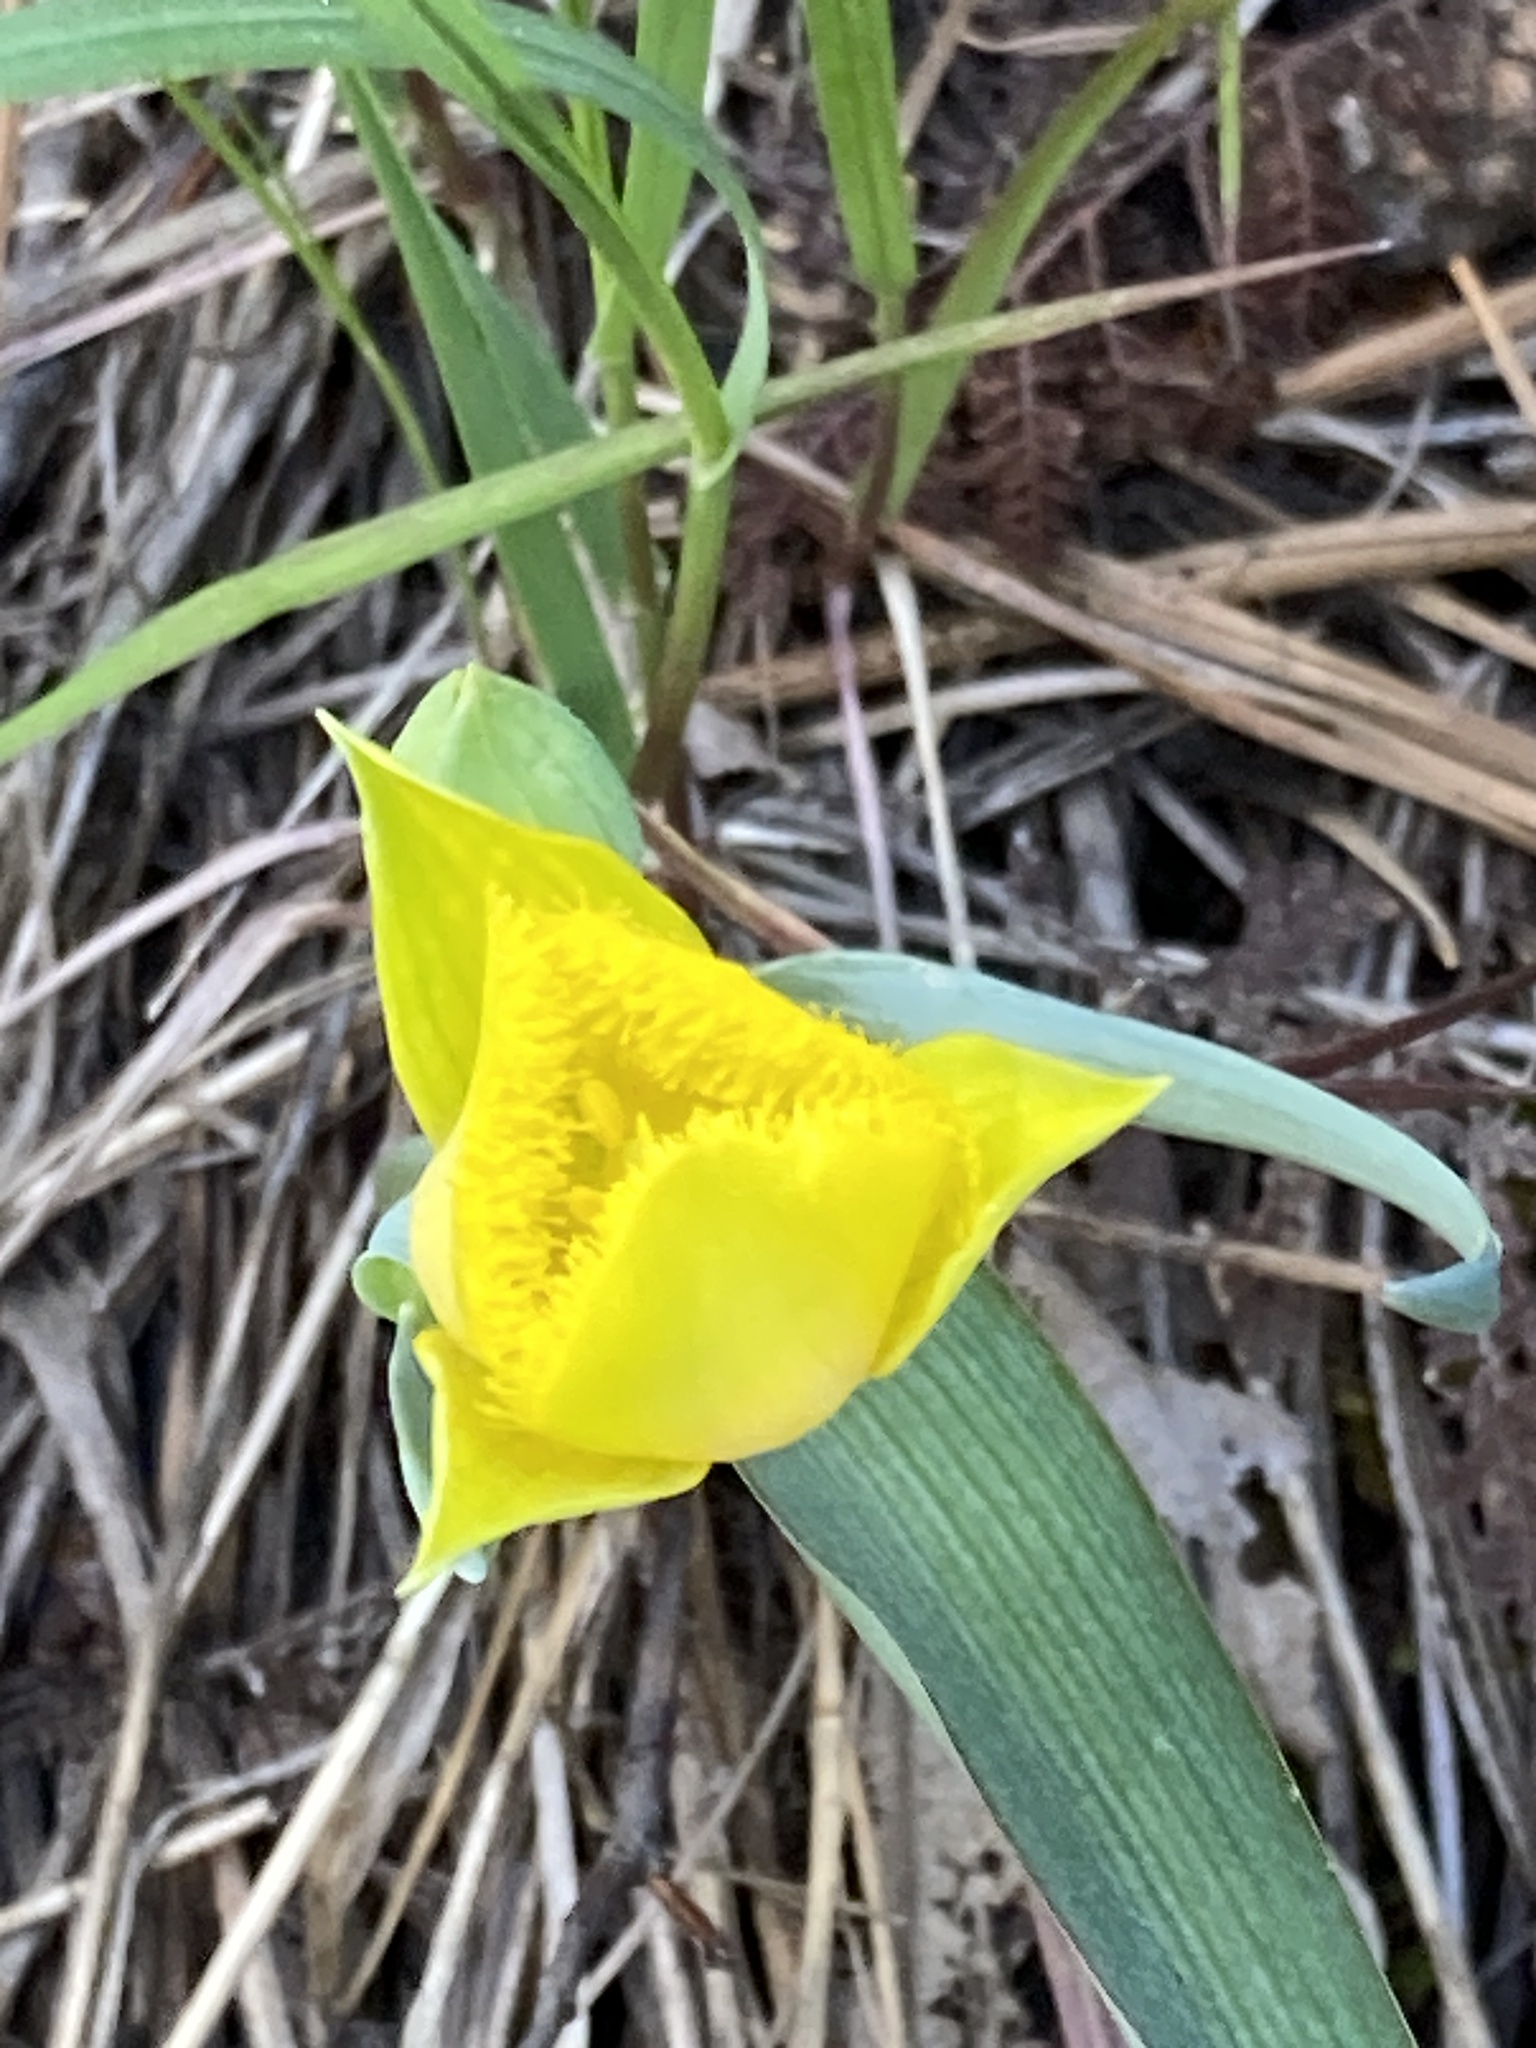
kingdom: Plantae
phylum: Tracheophyta
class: Liliopsida
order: Liliales
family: Liliaceae
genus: Calochortus
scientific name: Calochortus monophyllus
